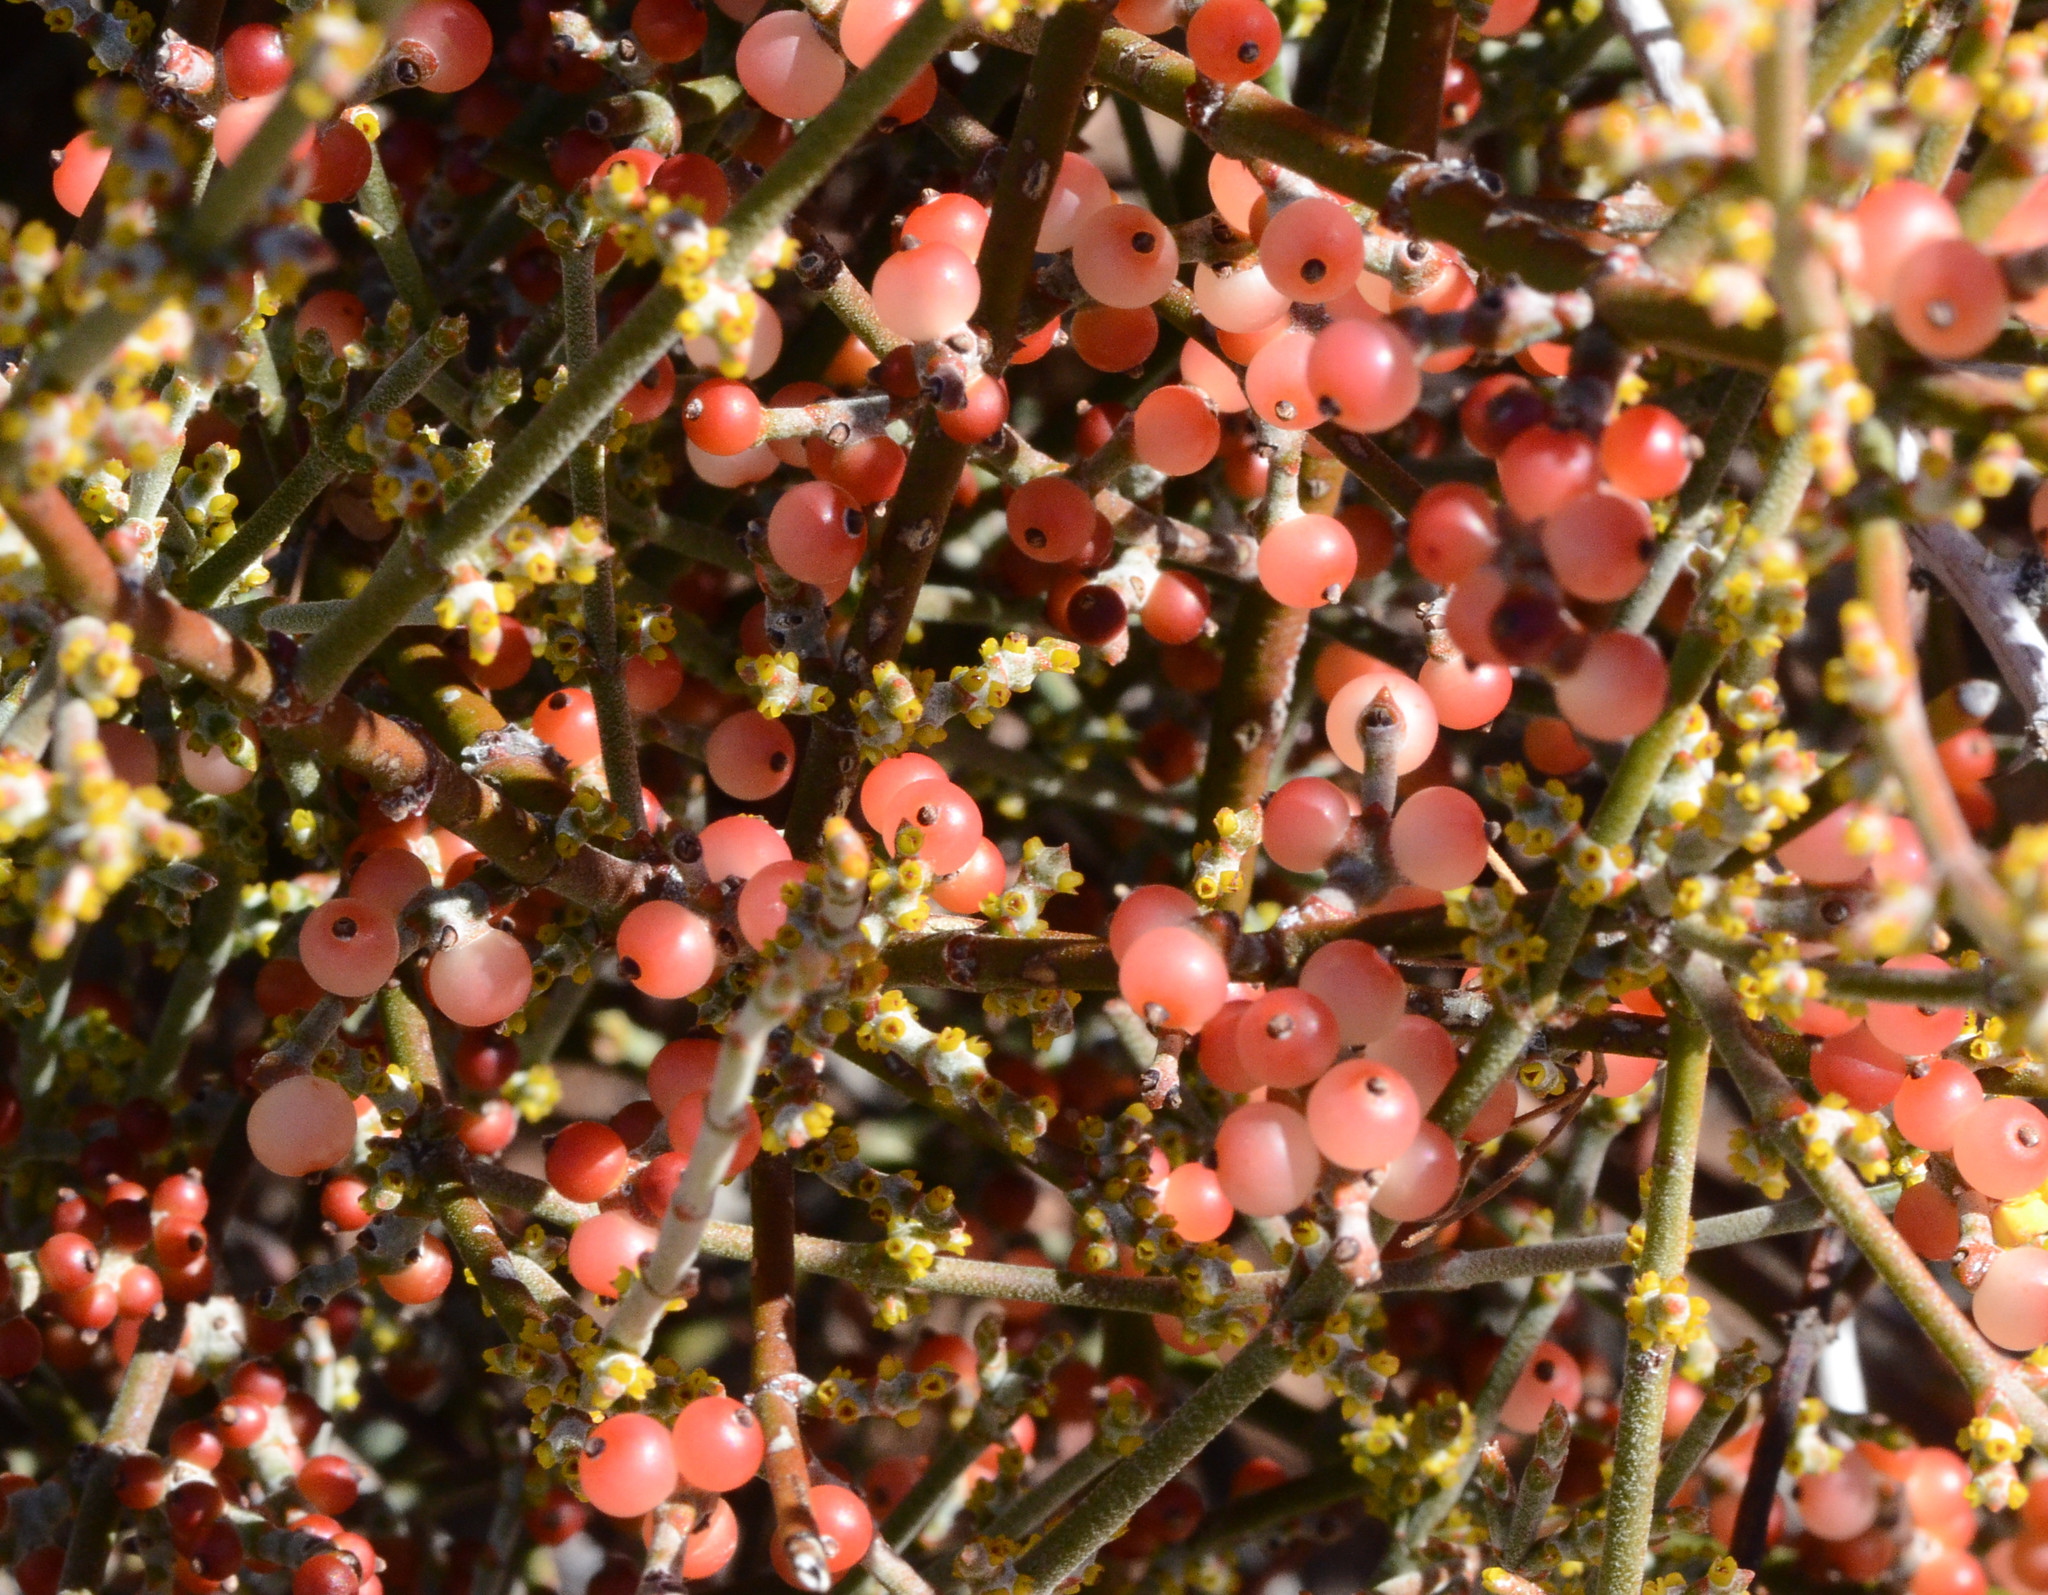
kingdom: Plantae
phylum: Tracheophyta
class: Magnoliopsida
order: Santalales
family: Viscaceae
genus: Phoradendron
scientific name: Phoradendron californicum
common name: Acacia mistletoe
